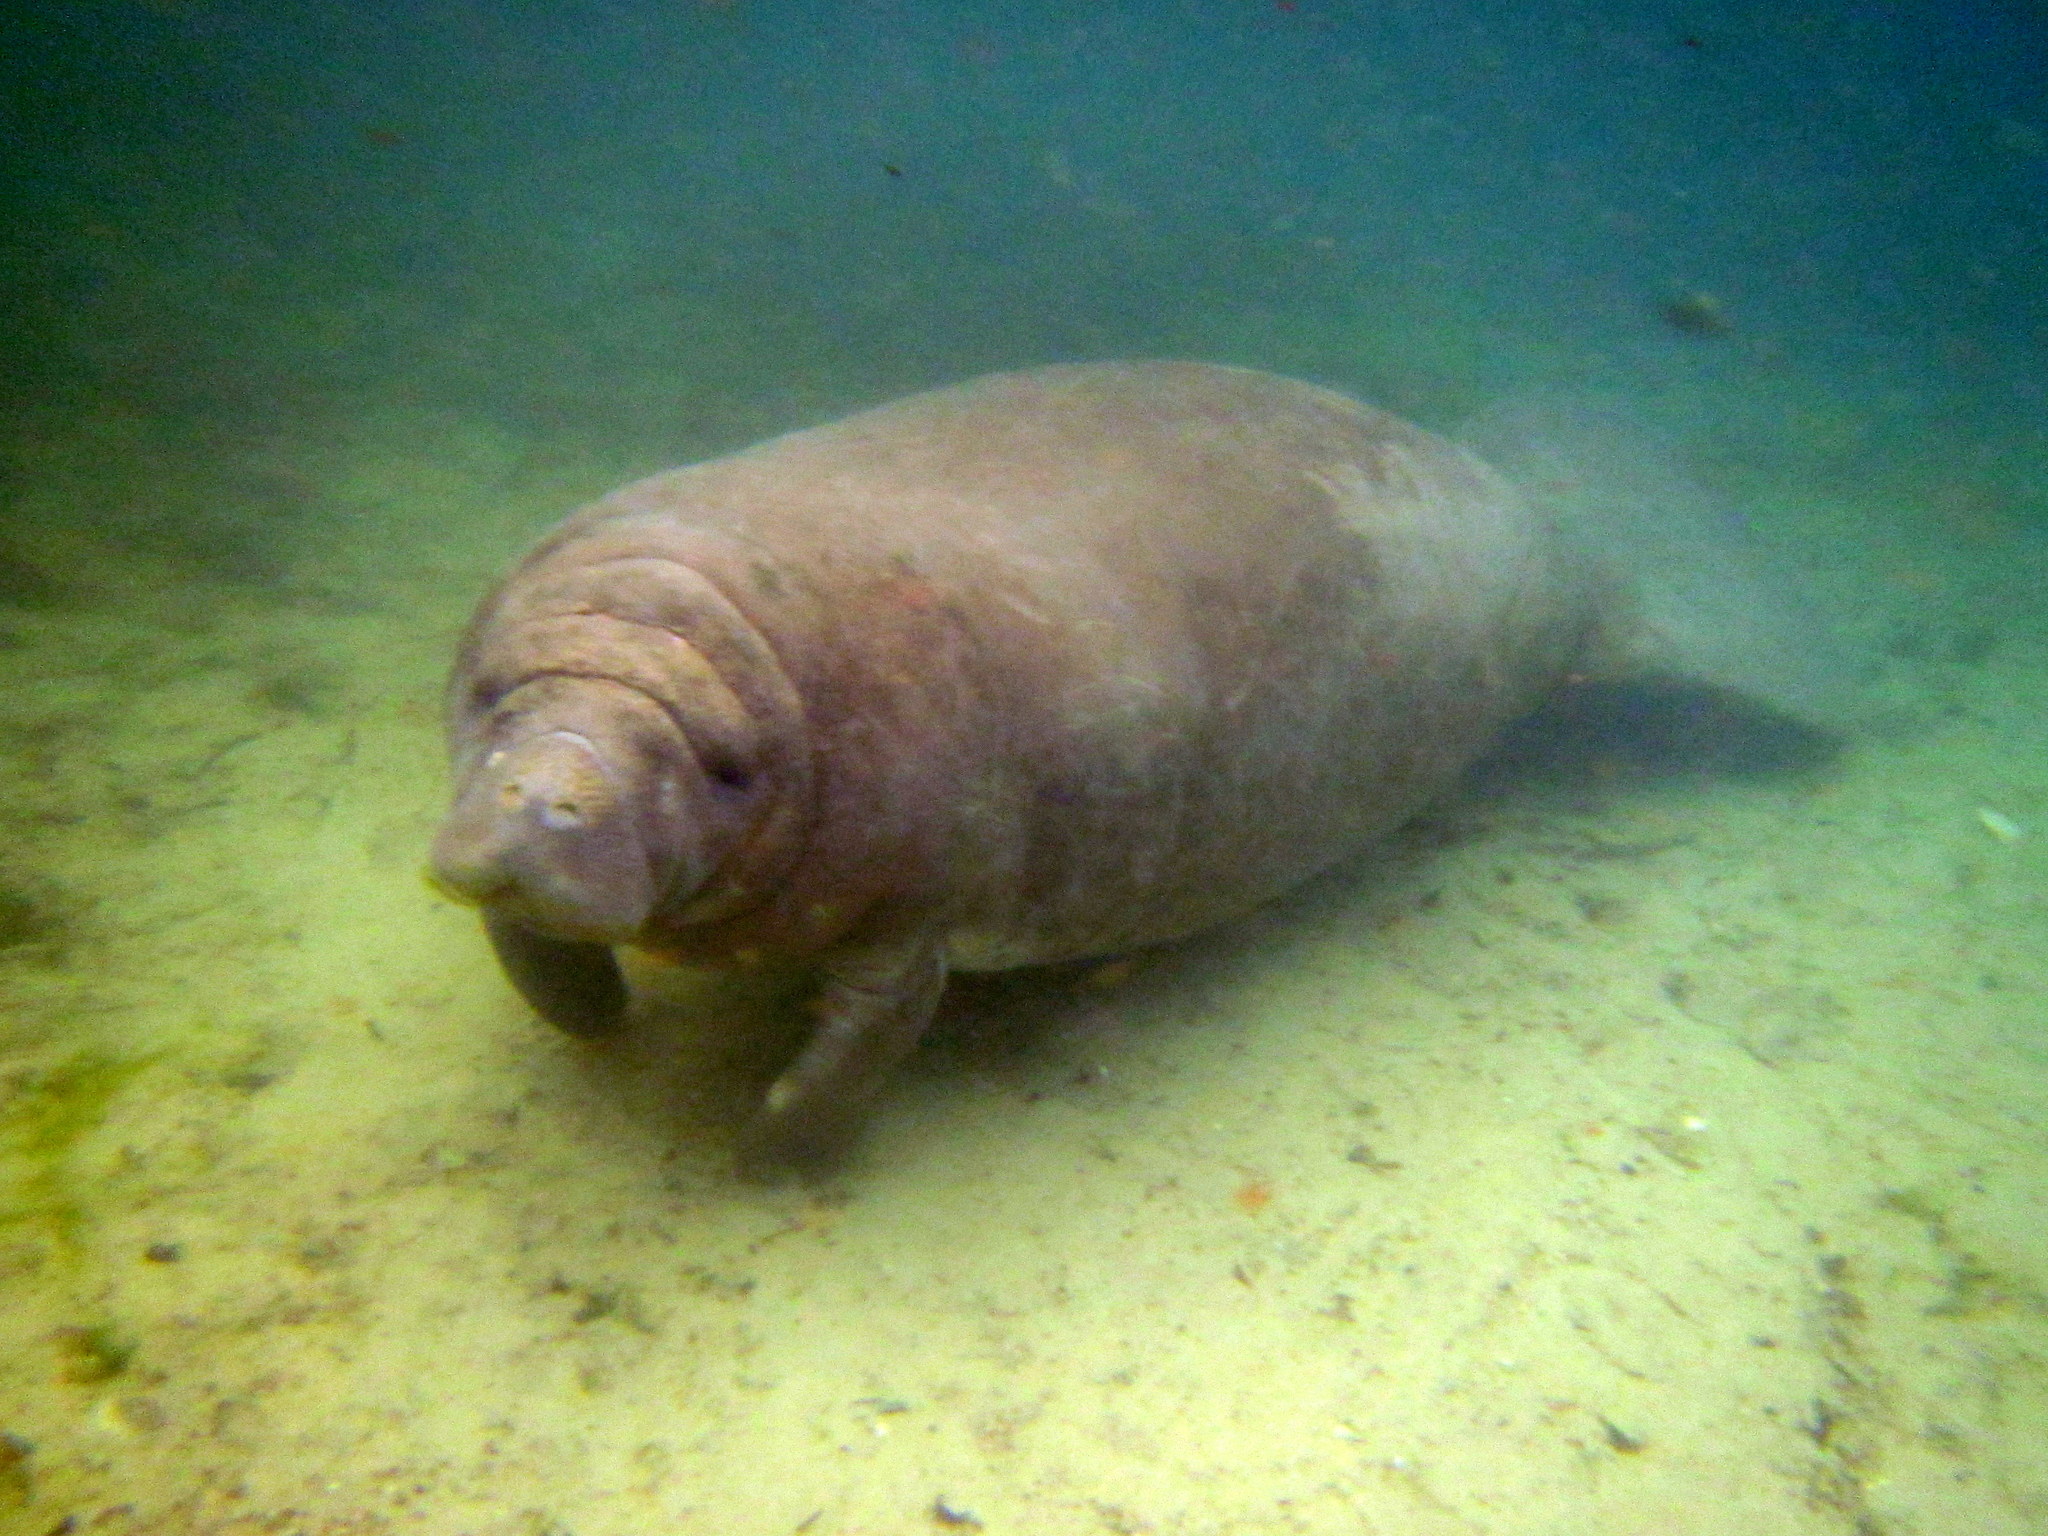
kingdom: Animalia
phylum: Chordata
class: Mammalia
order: Sirenia
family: Trichechidae
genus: Trichechus
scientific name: Trichechus manatus
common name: West indian manatee
